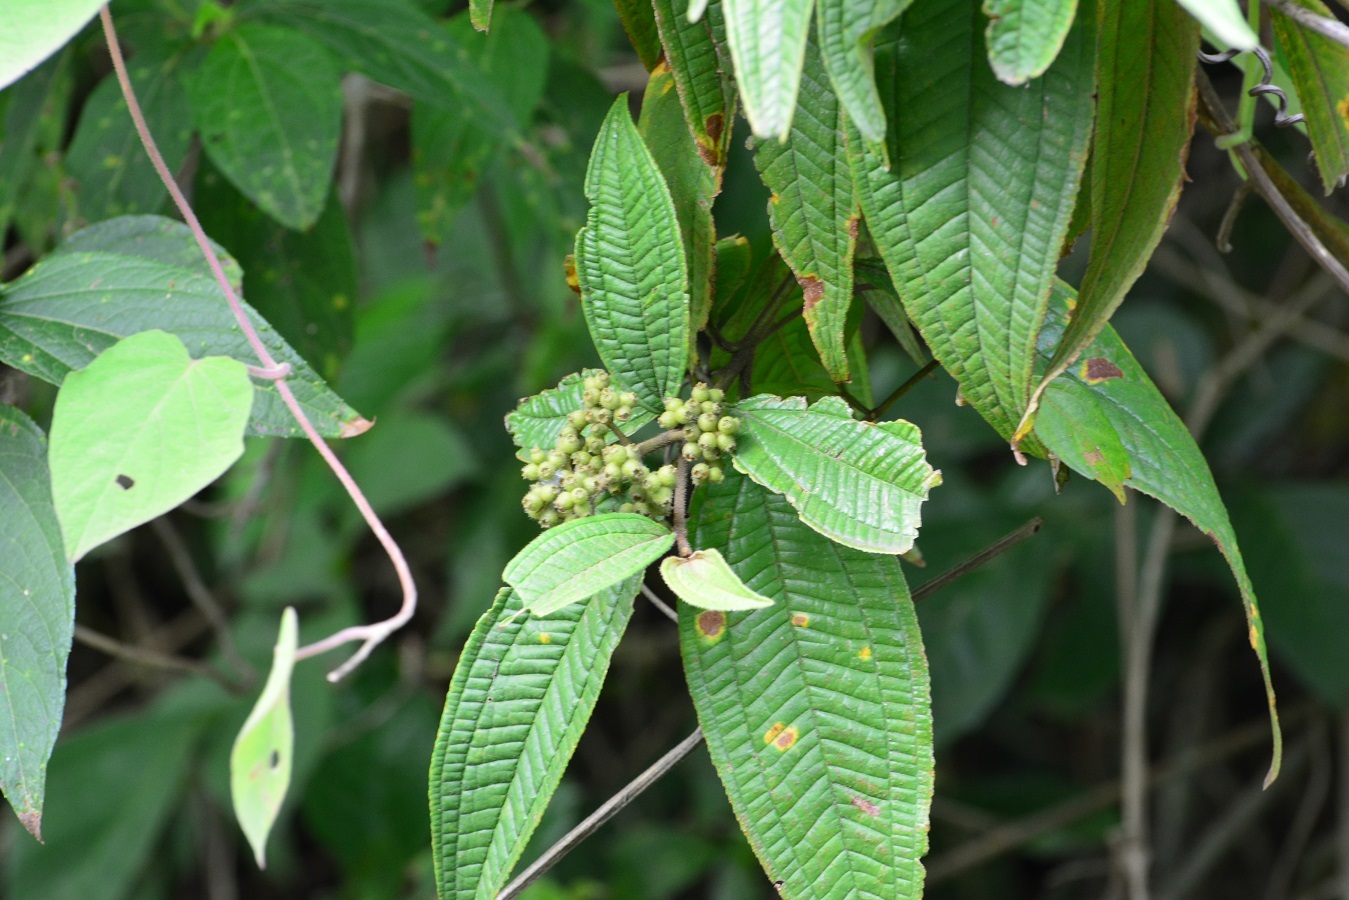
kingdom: Plantae
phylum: Tracheophyta
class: Magnoliopsida
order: Myrtales
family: Melastomataceae
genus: Miconia
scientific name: Miconia ibaguensis
